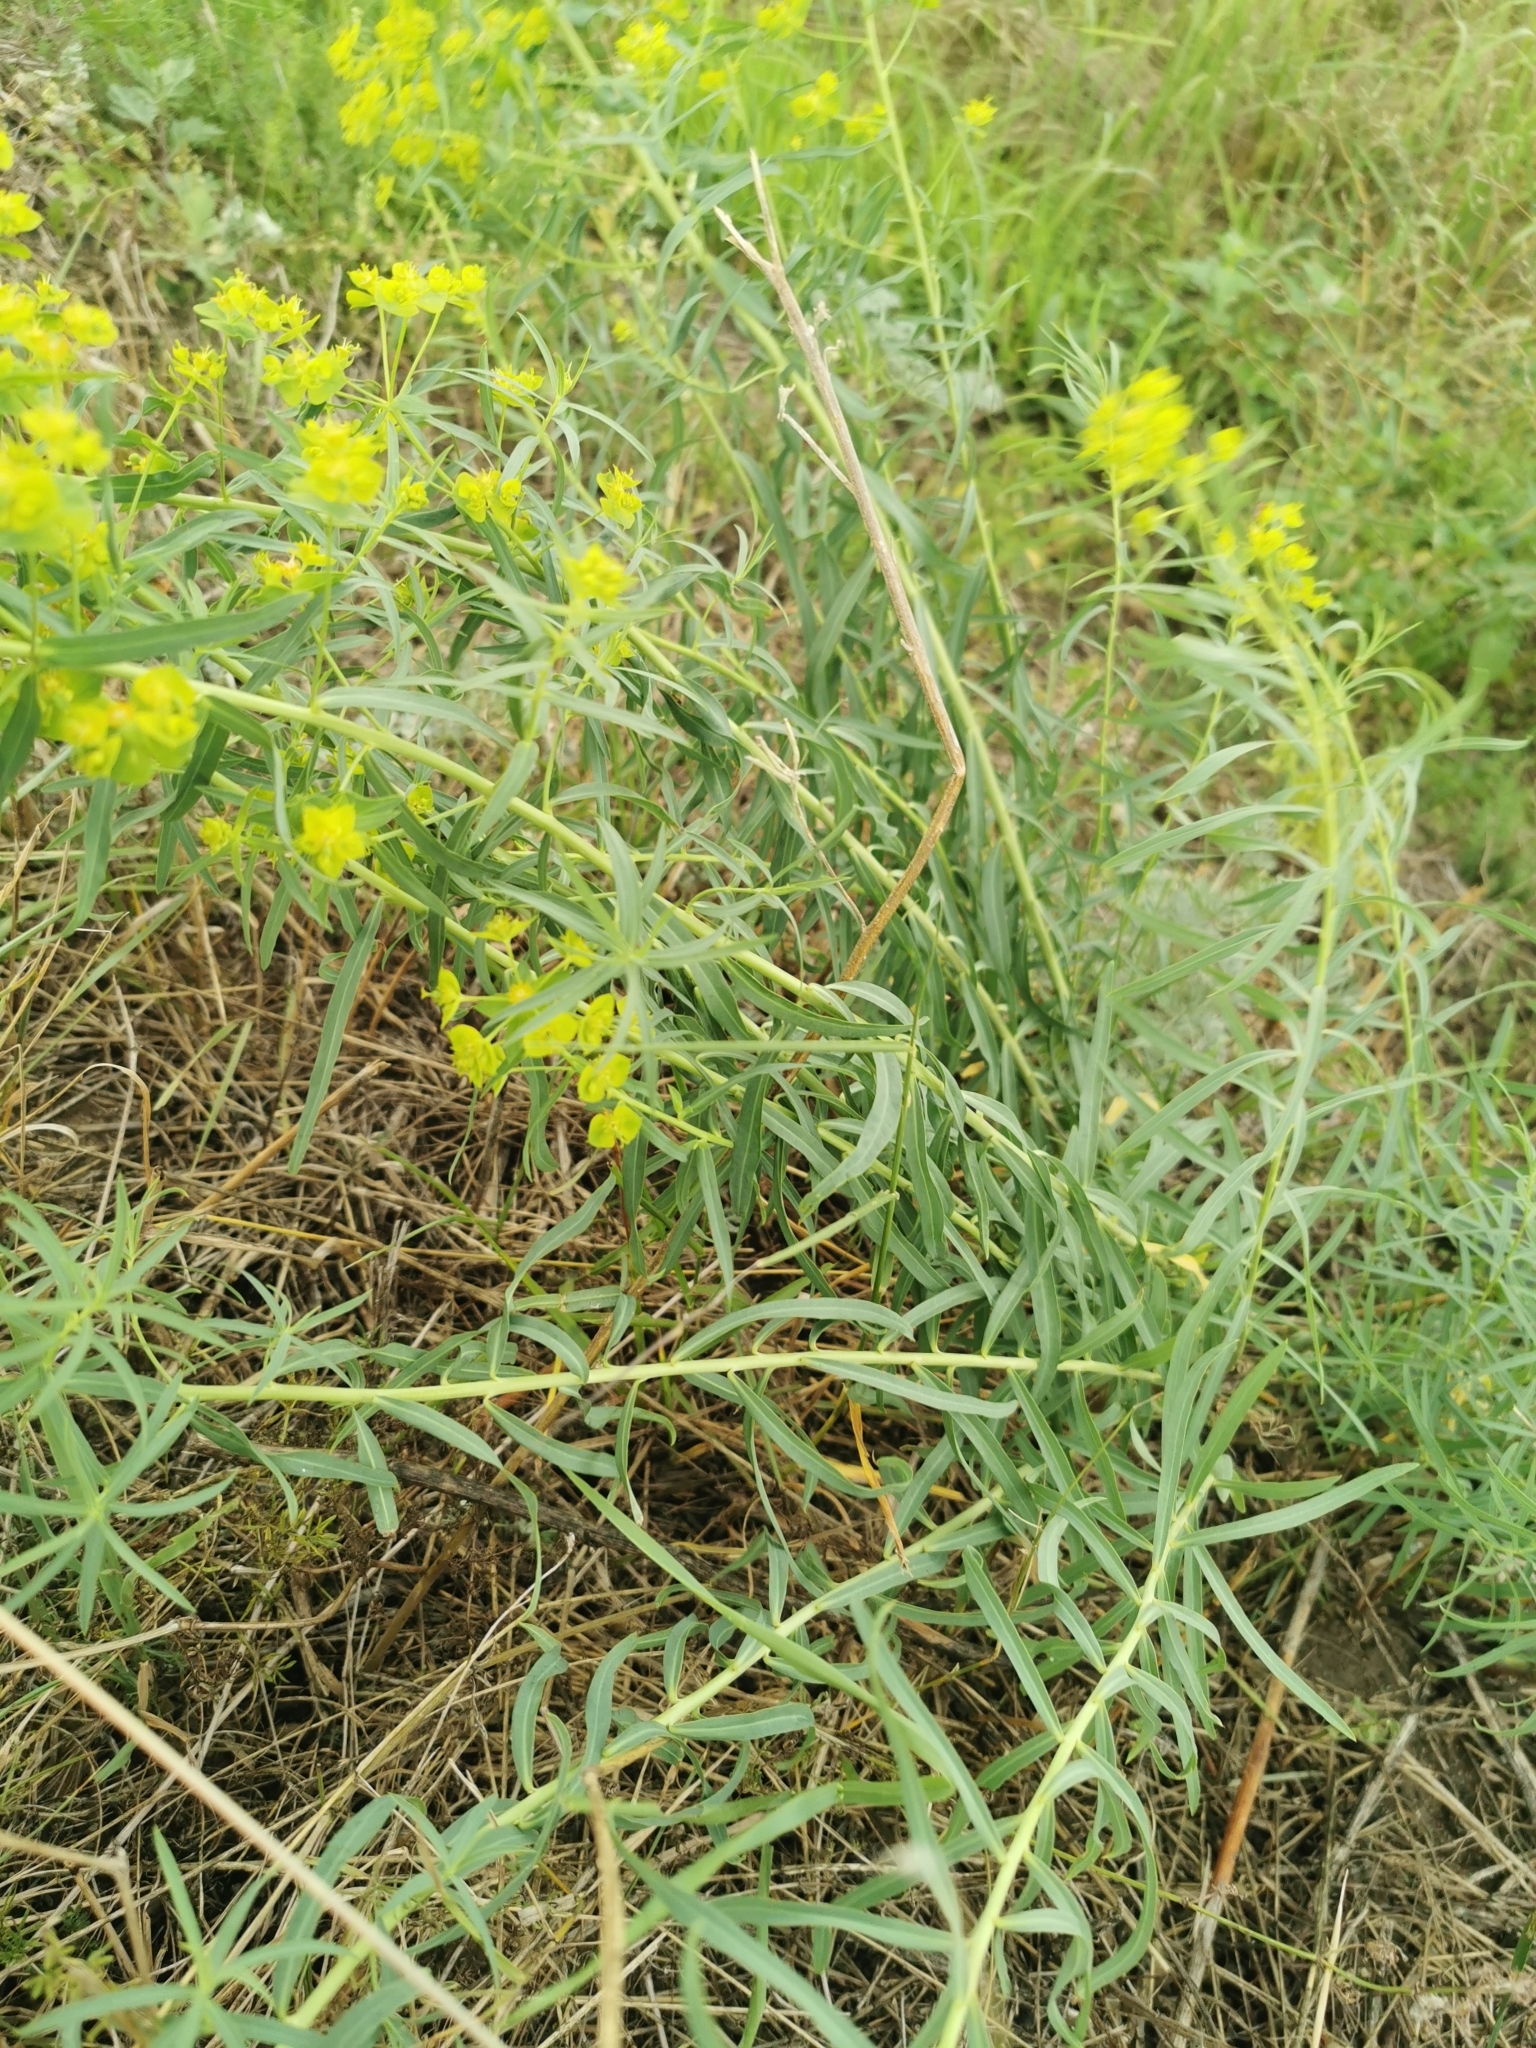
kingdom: Plantae
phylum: Tracheophyta
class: Magnoliopsida
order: Malpighiales
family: Euphorbiaceae
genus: Euphorbia
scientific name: Euphorbia virgata
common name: Leafy spurge
